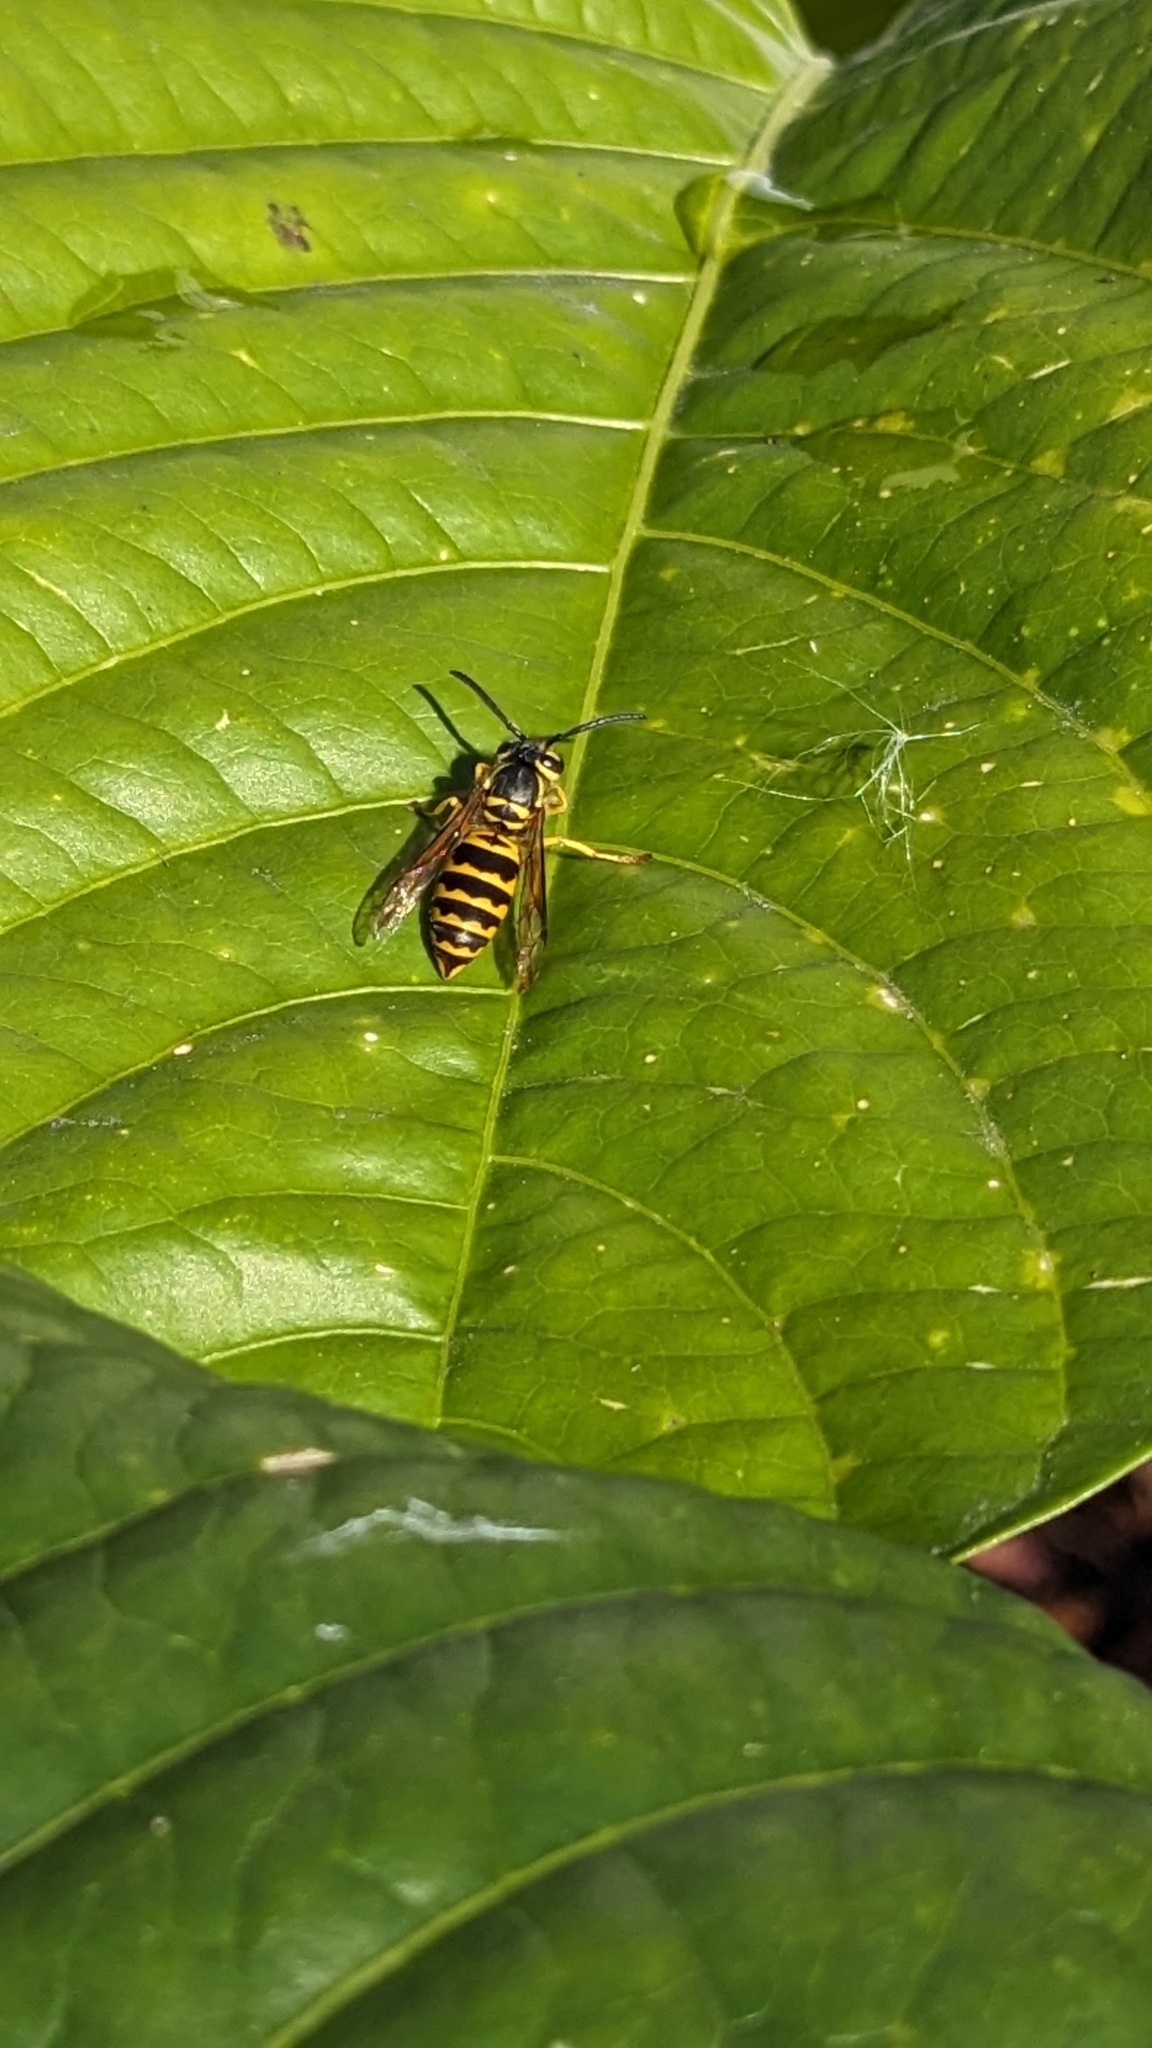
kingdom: Animalia
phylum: Arthropoda
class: Insecta
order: Hymenoptera
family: Vespidae
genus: Vespula
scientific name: Vespula maculifrons
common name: Eastern yellowjacket
